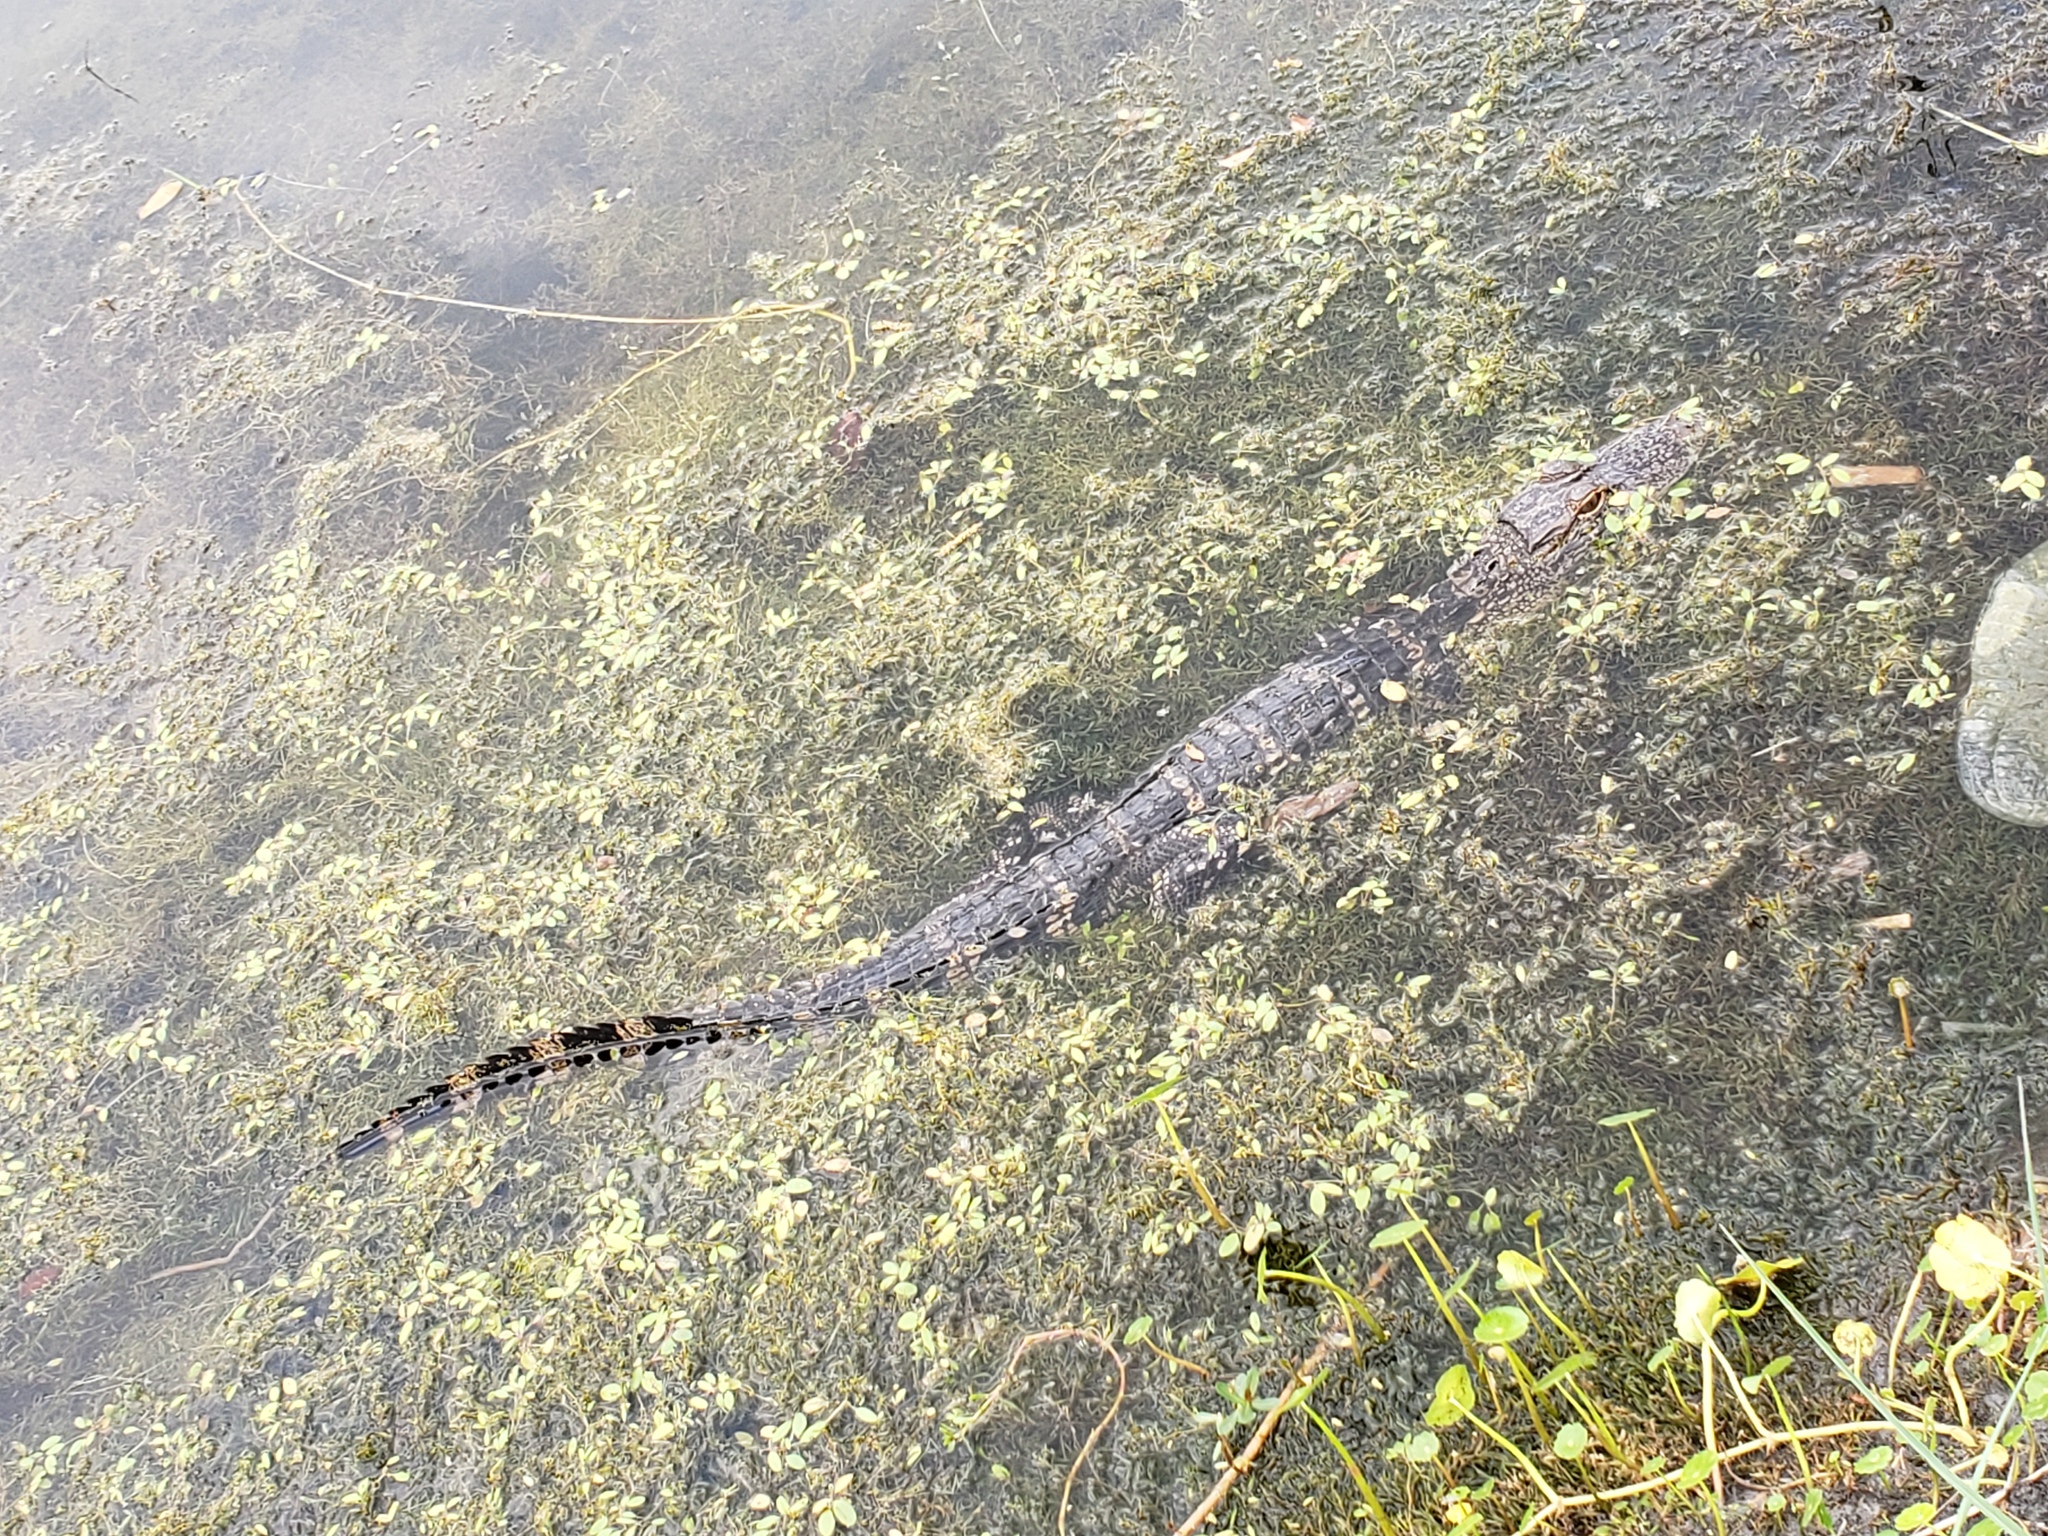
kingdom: Animalia
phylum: Chordata
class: Crocodylia
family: Alligatoridae
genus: Alligator
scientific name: Alligator mississippiensis
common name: American alligator
